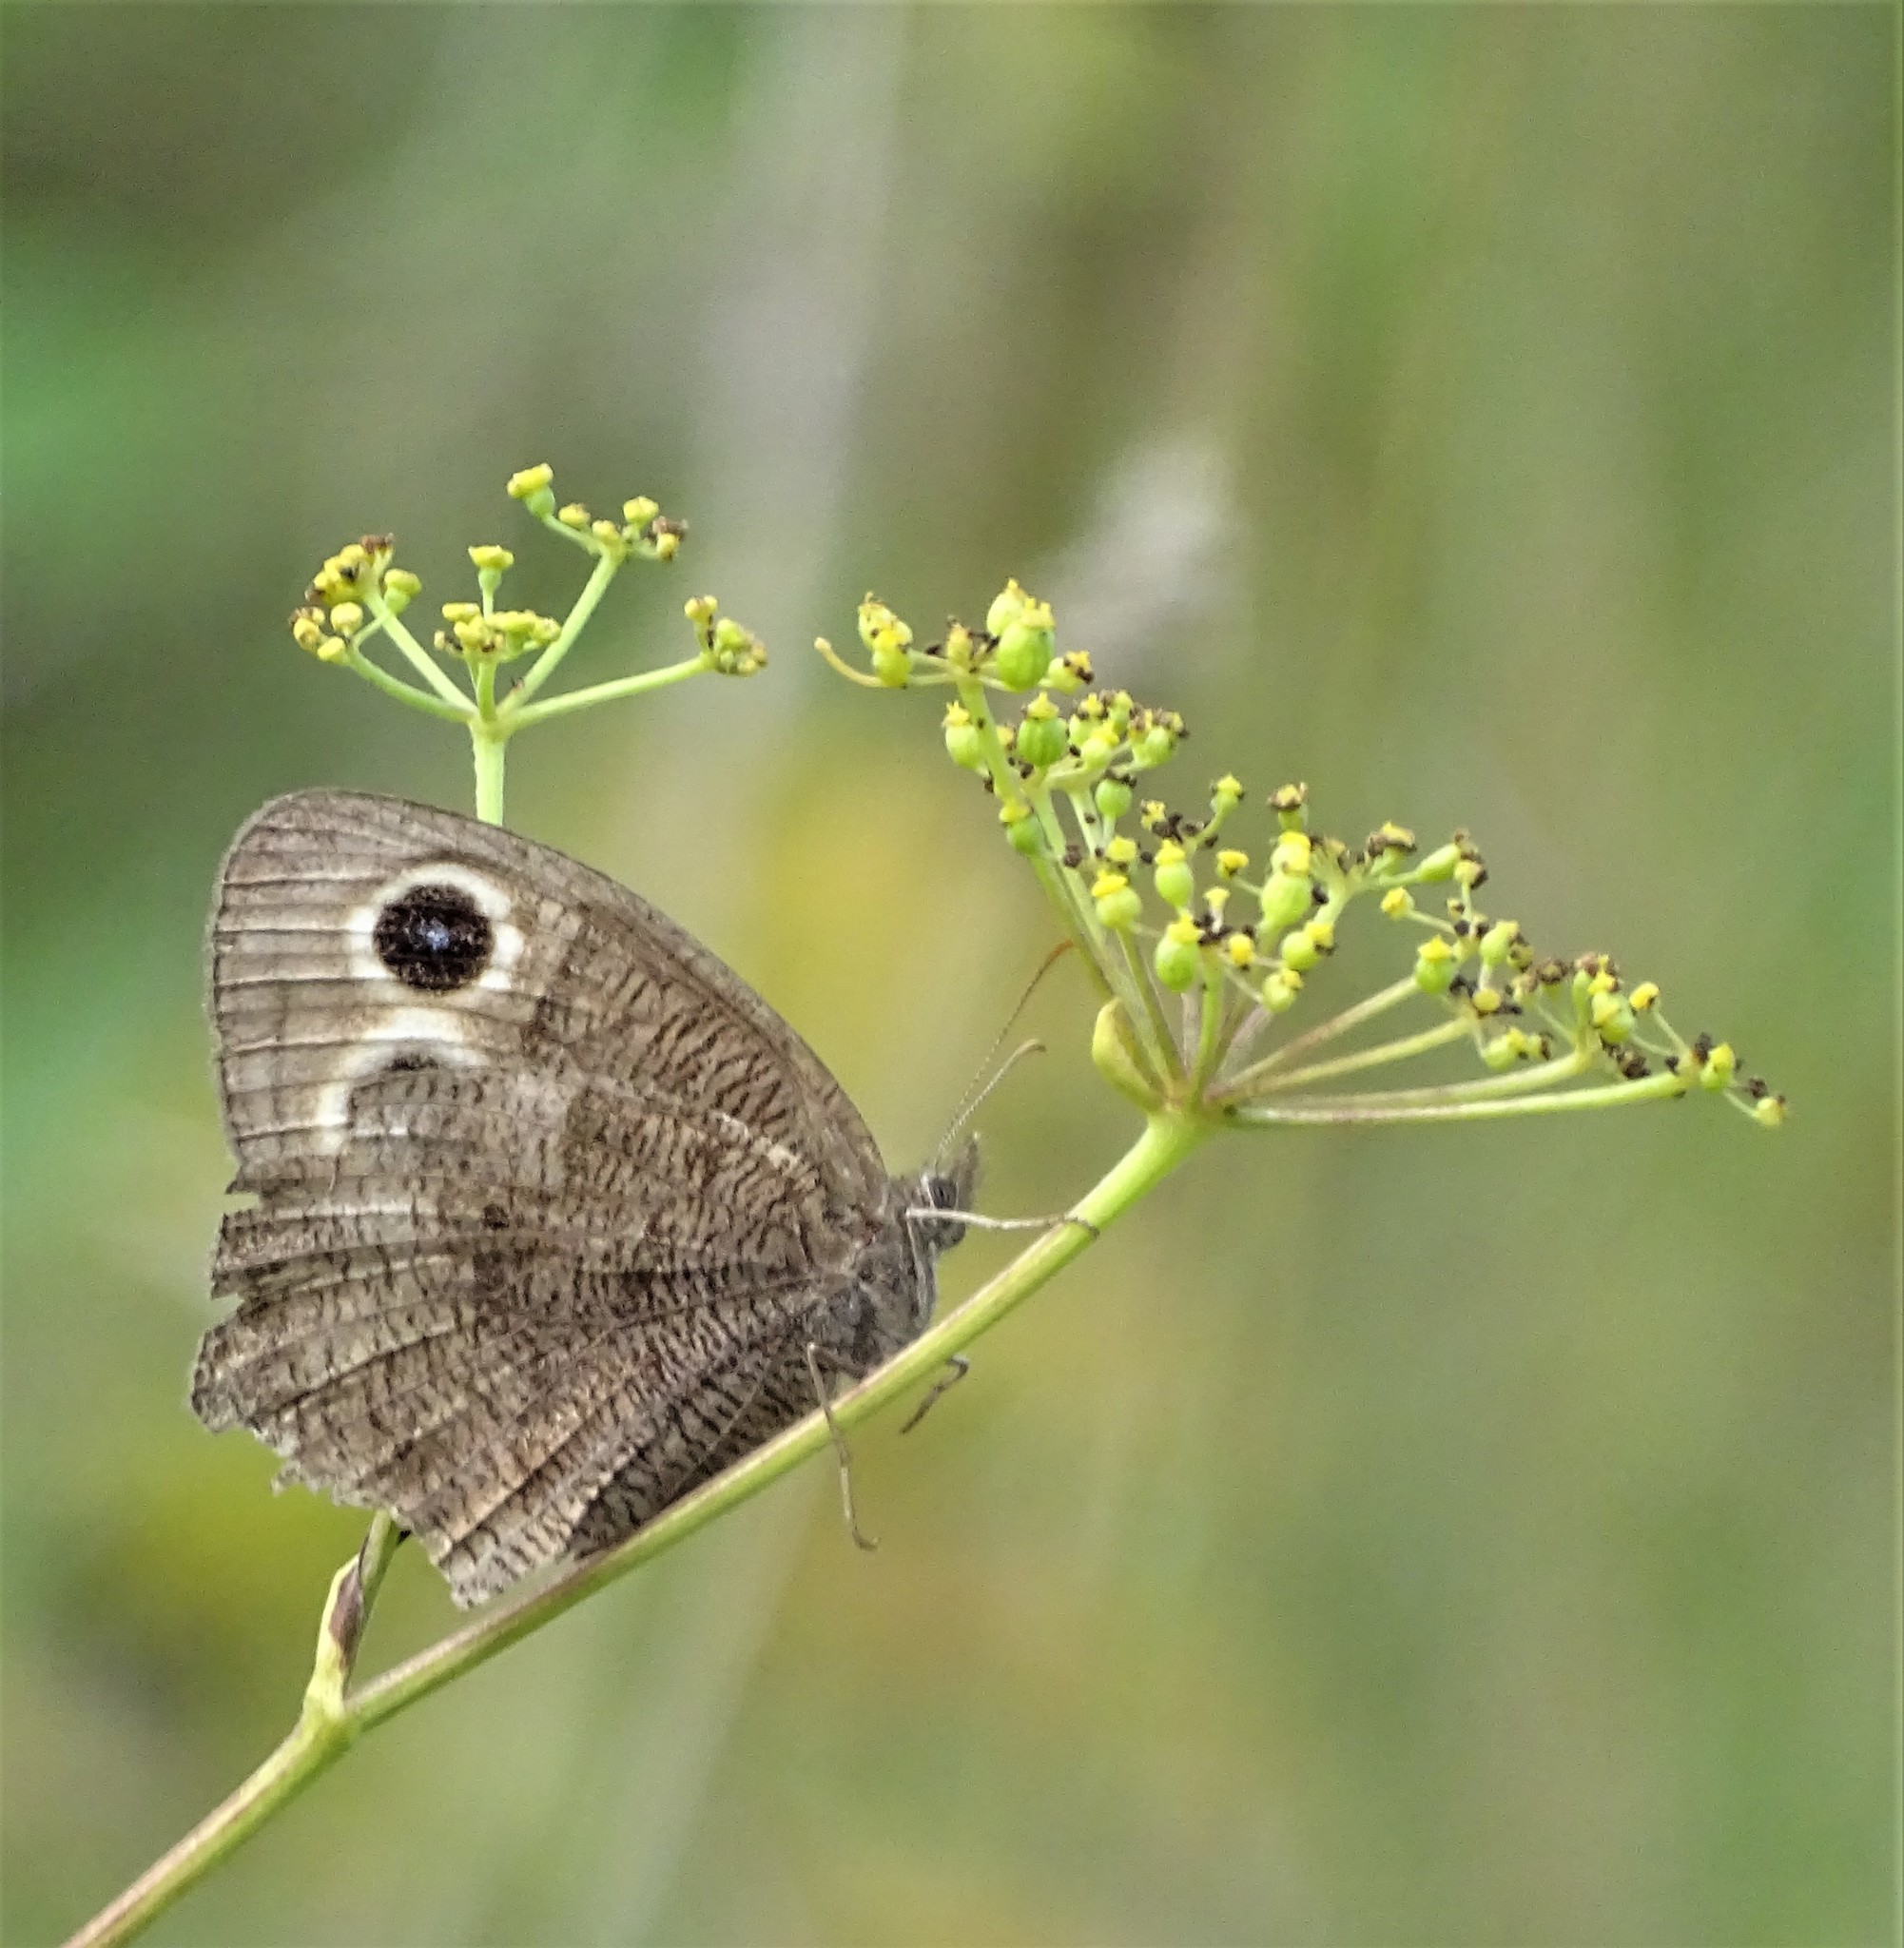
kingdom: Animalia
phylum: Arthropoda
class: Insecta
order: Lepidoptera
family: Nymphalidae
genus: Cercyonis
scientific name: Cercyonis pegala
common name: Common wood-nymph
